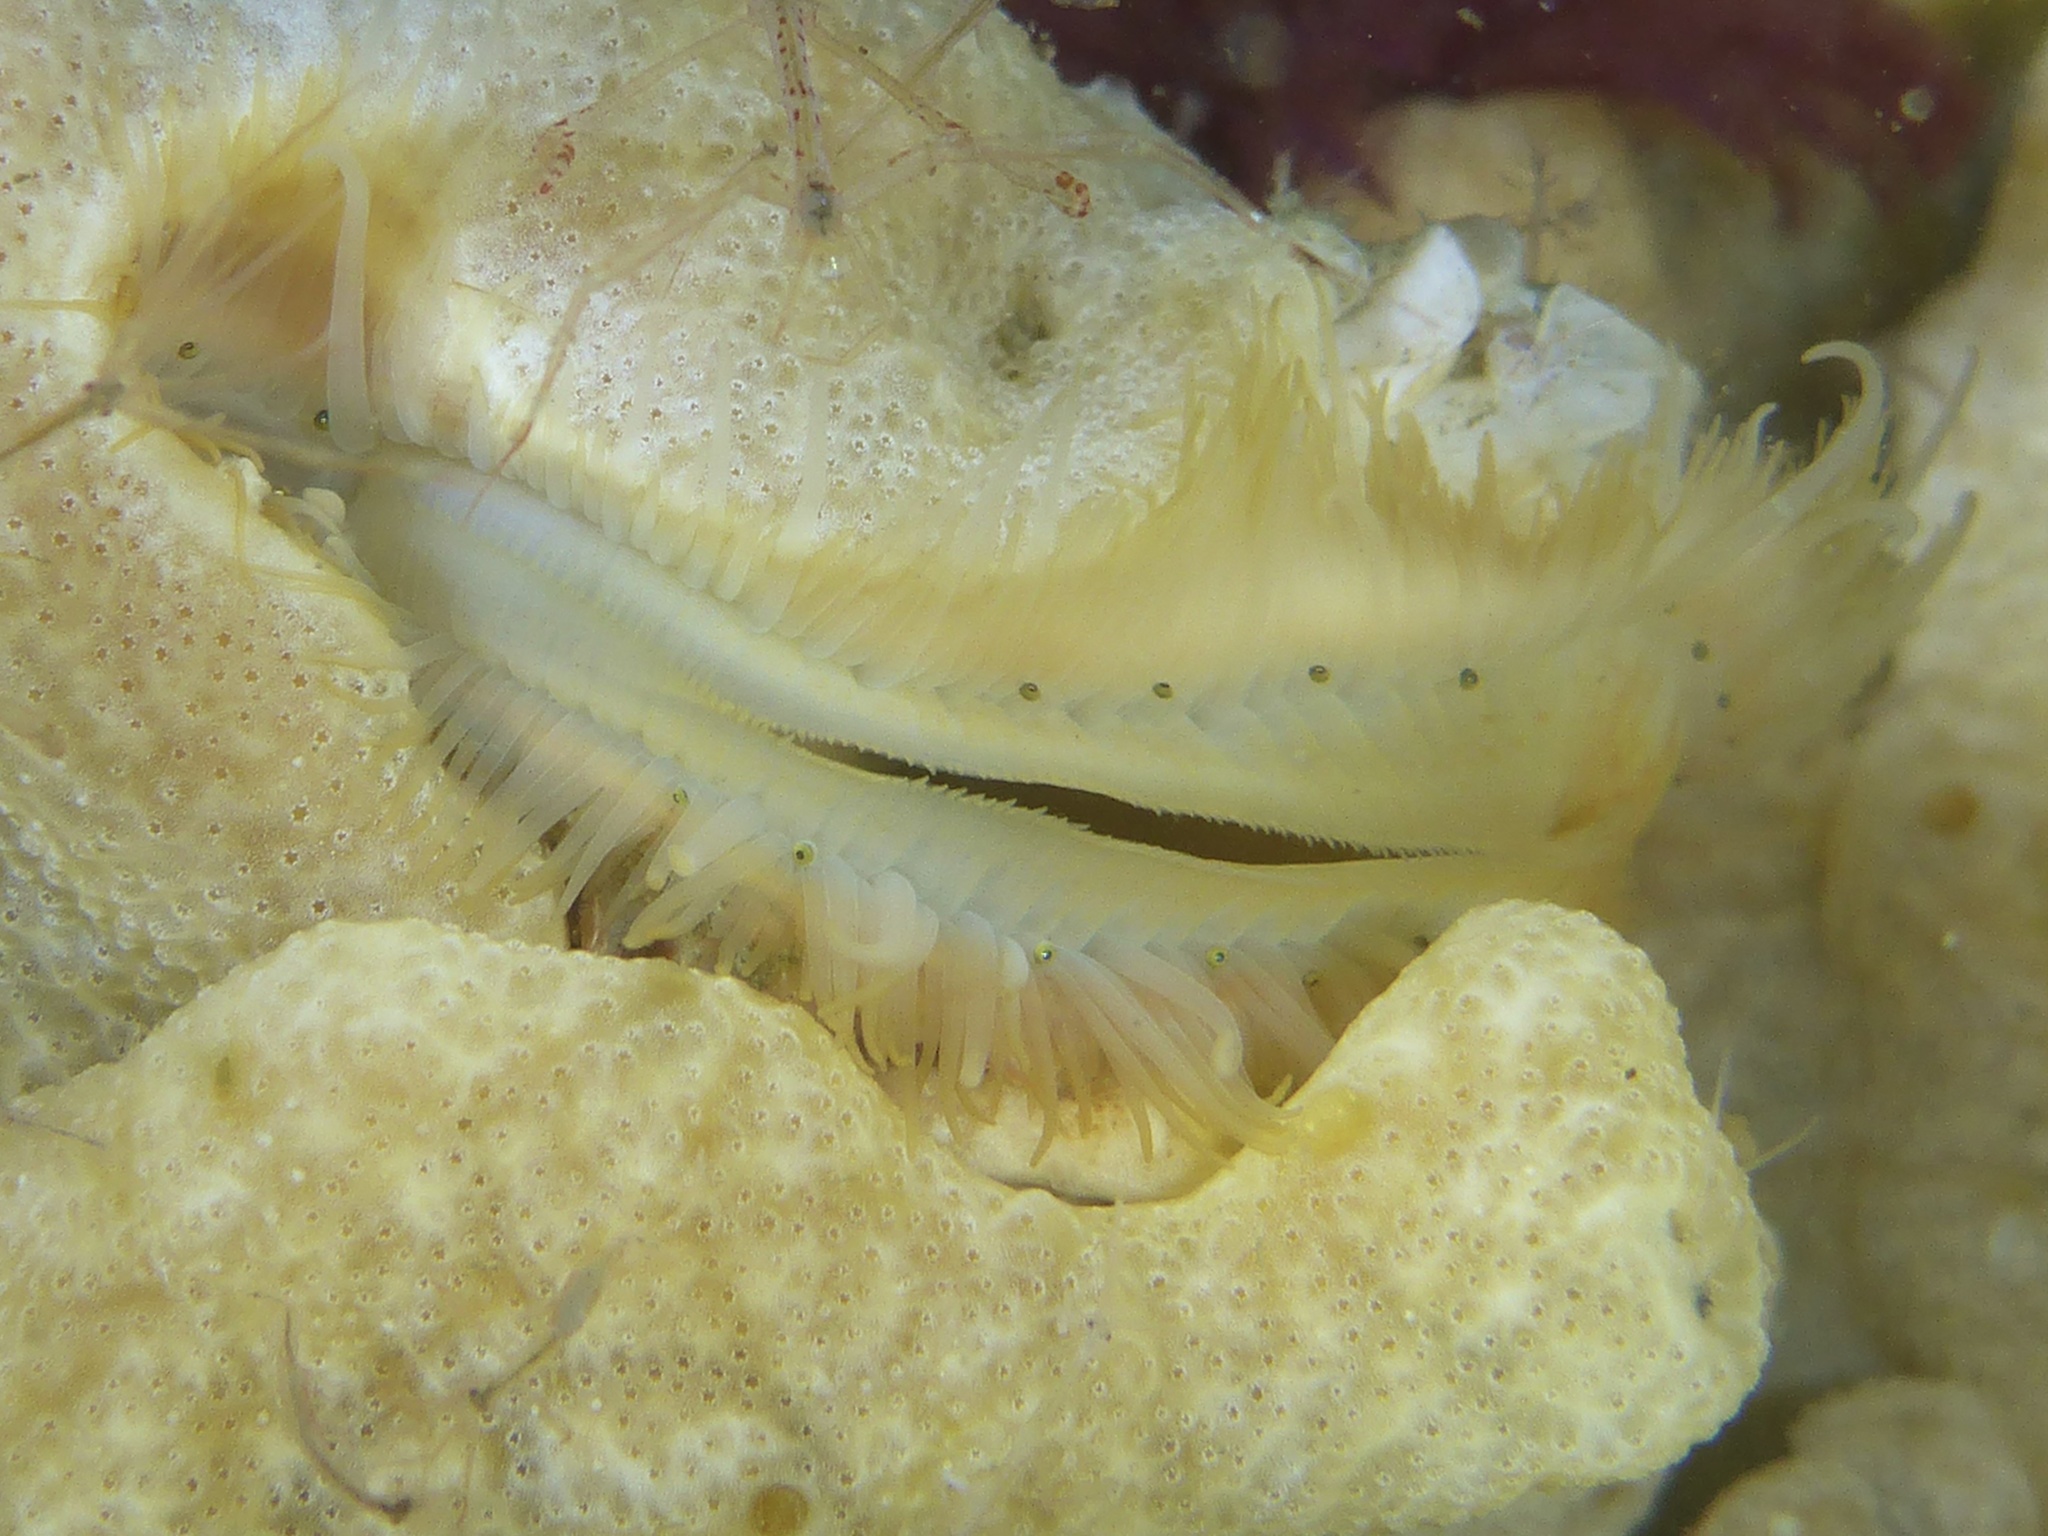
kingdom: Animalia
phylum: Mollusca
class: Bivalvia
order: Pectinida
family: Pectinidae
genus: Crassadoma
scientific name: Crassadoma gigantea
